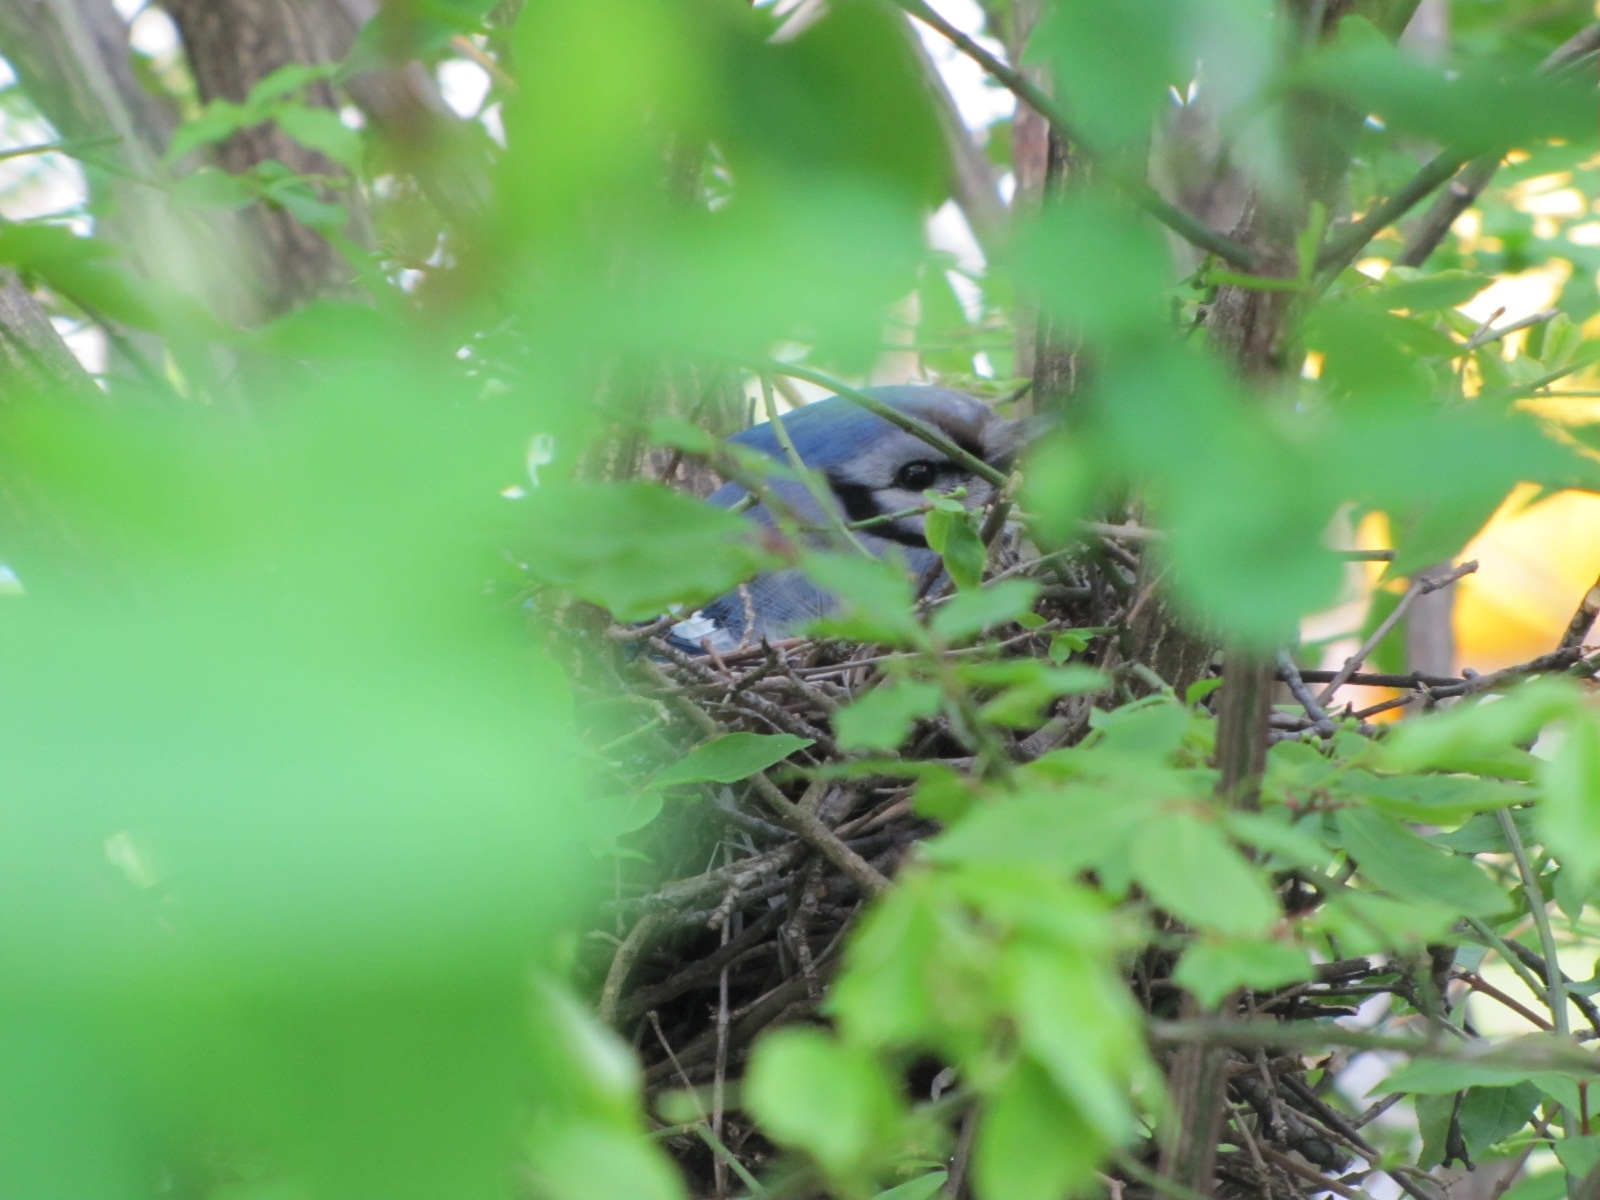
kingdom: Animalia
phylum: Chordata
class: Aves
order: Passeriformes
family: Corvidae
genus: Cyanocitta
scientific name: Cyanocitta cristata
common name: Blue jay
